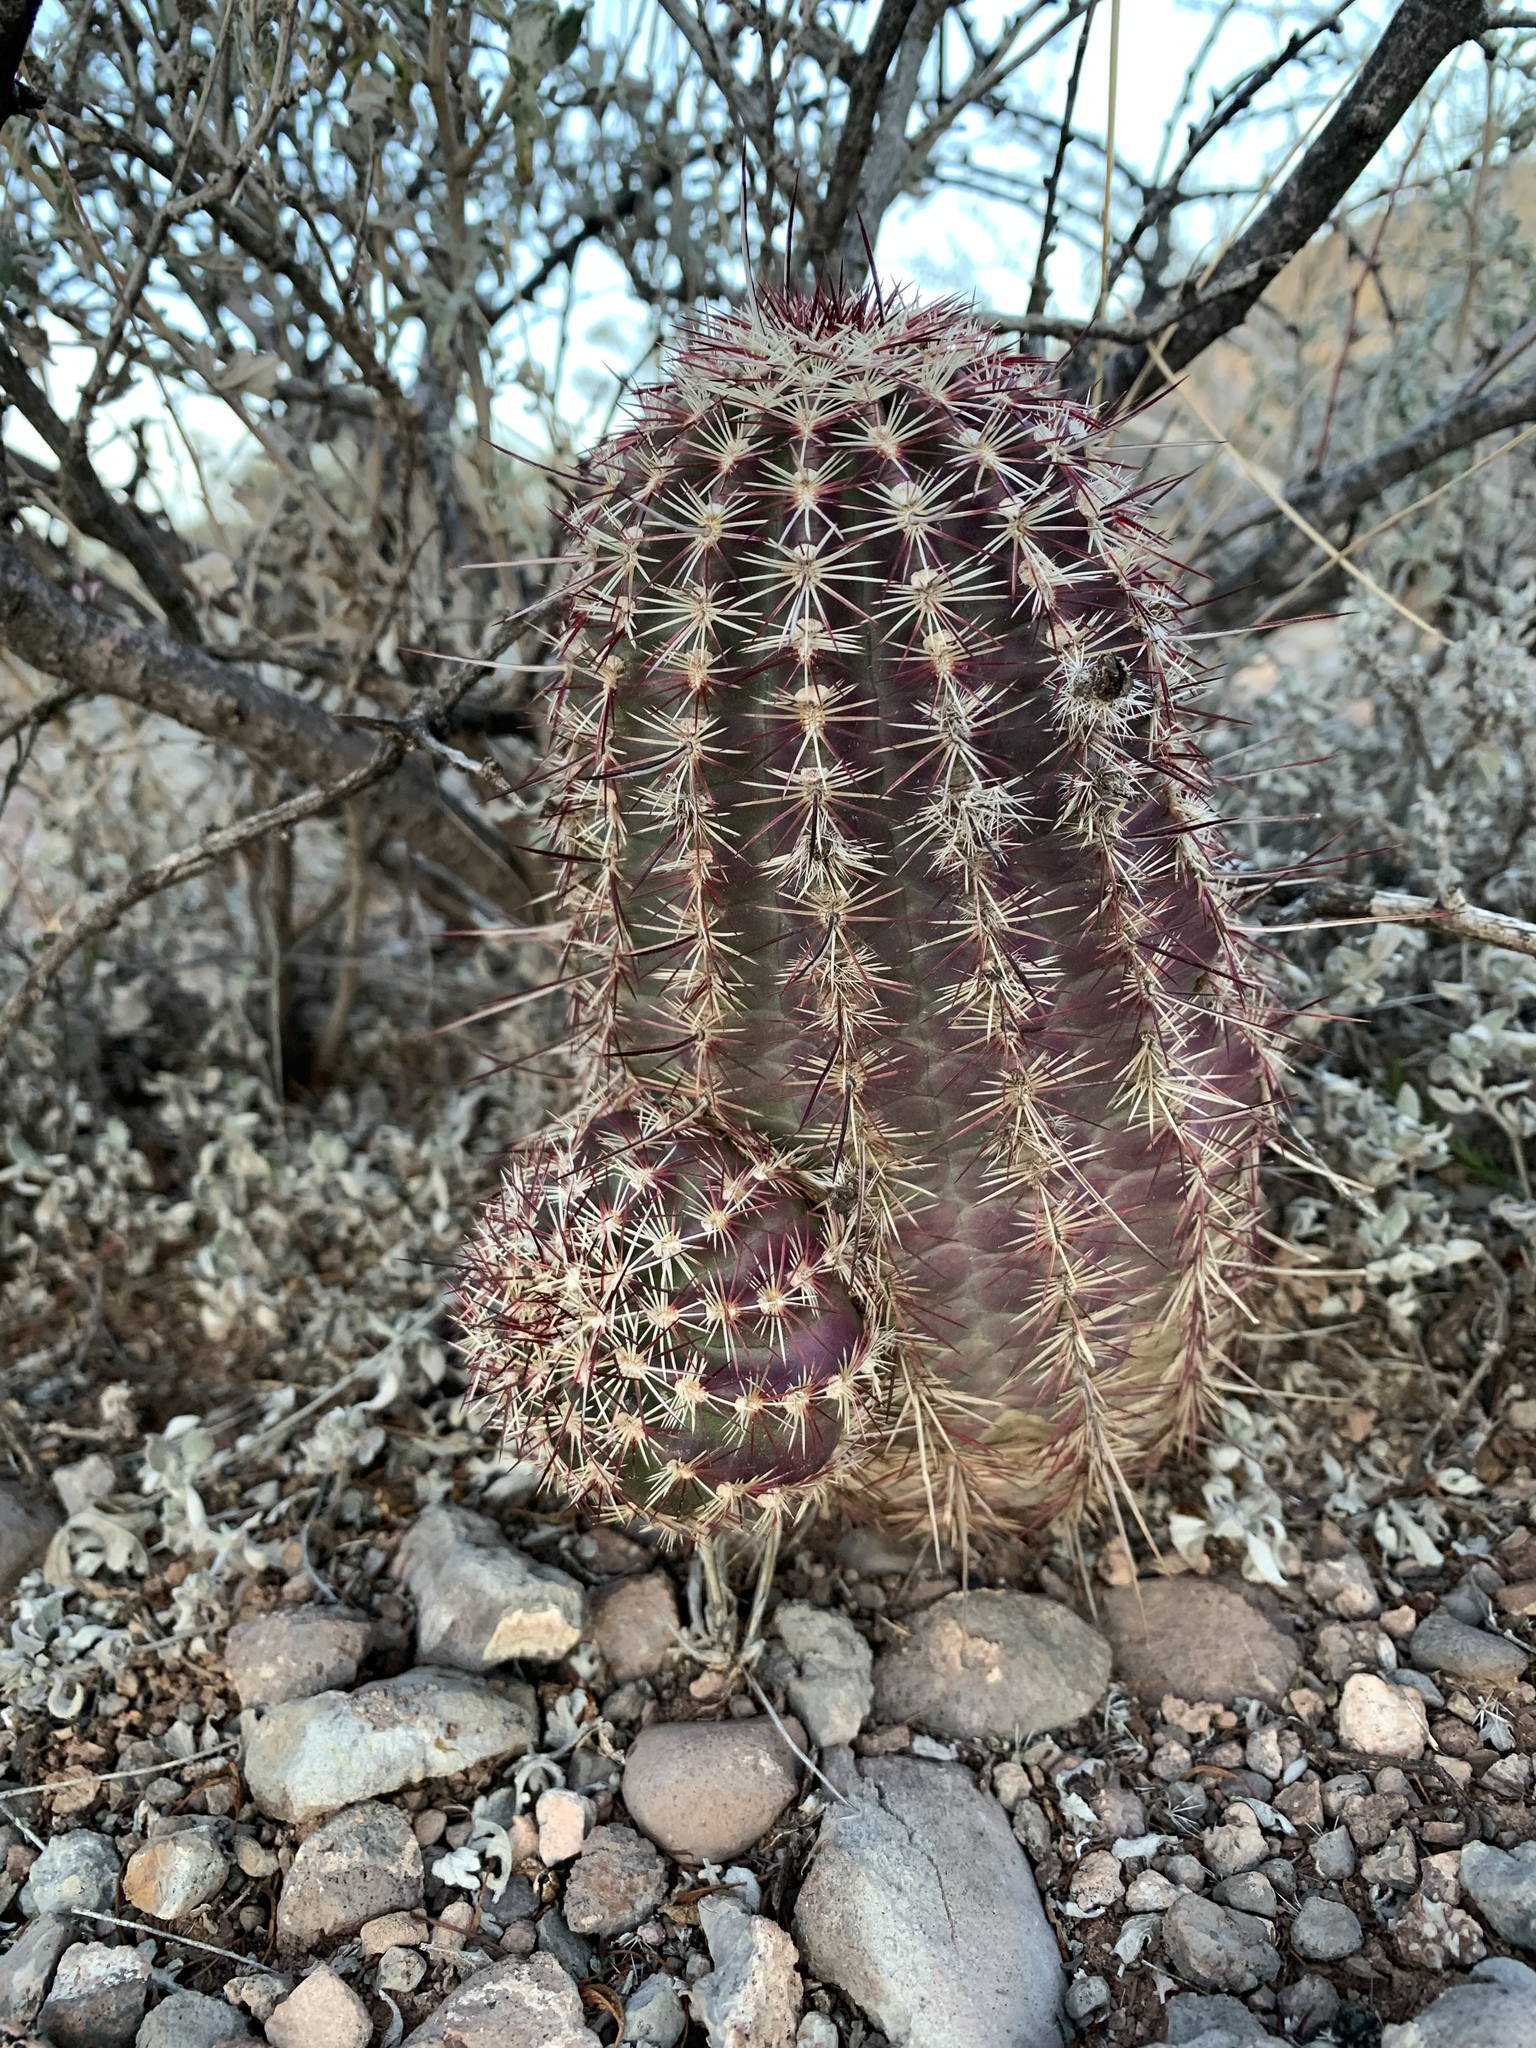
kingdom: Plantae
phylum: Tracheophyta
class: Magnoliopsida
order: Caryophyllales
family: Cactaceae
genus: Echinocereus
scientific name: Echinocereus viridiflorus
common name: Nylon hedgehog cactus
